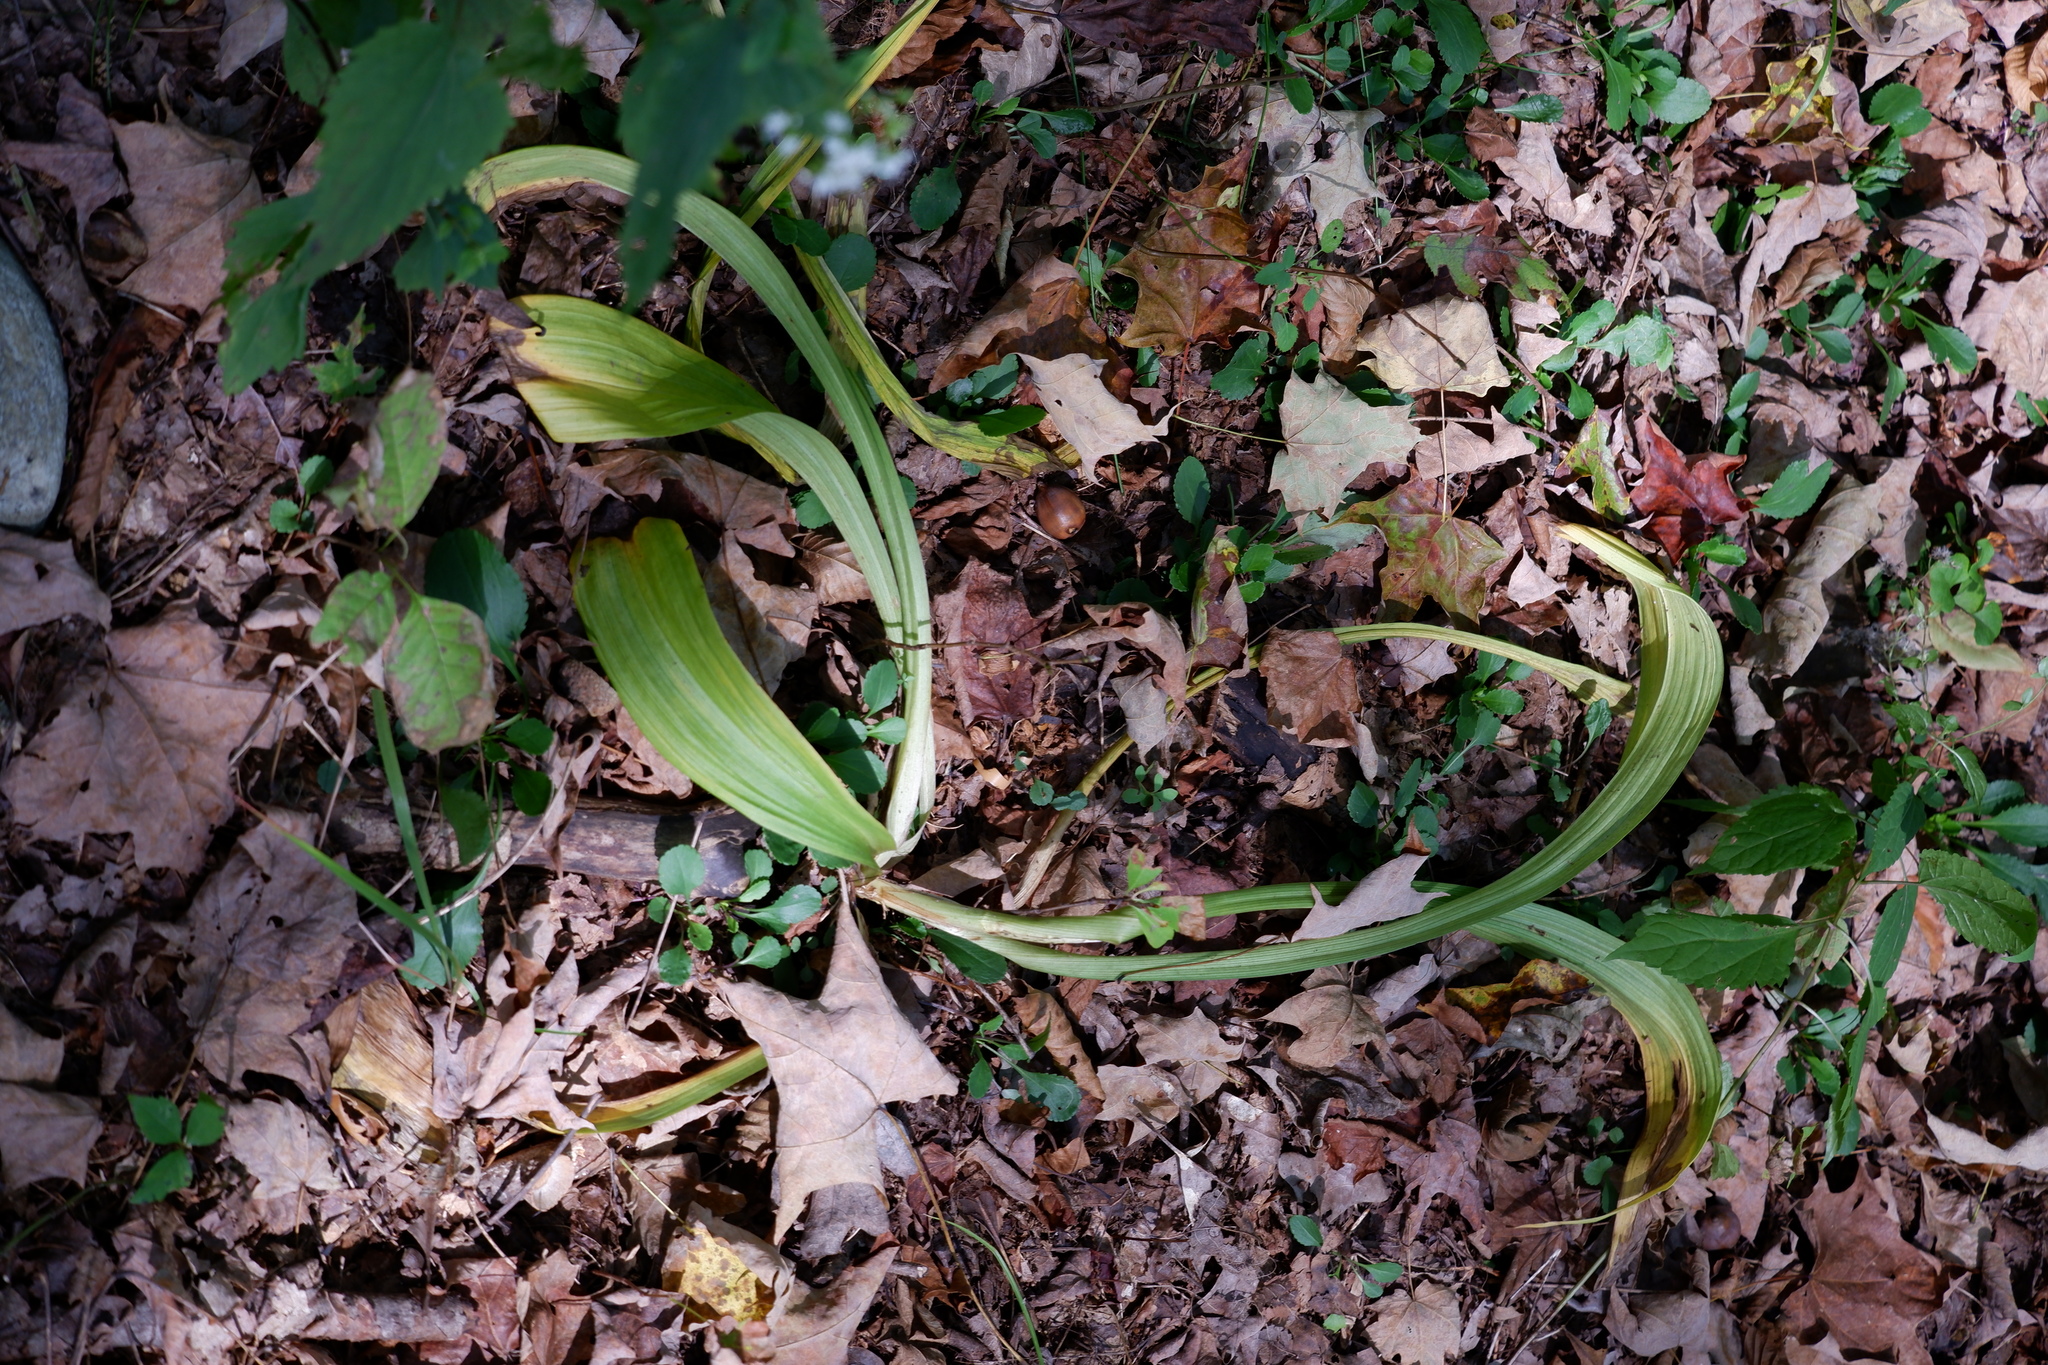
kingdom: Plantae
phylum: Tracheophyta
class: Liliopsida
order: Liliales
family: Melanthiaceae
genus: Veratrum
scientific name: Veratrum hybridum
